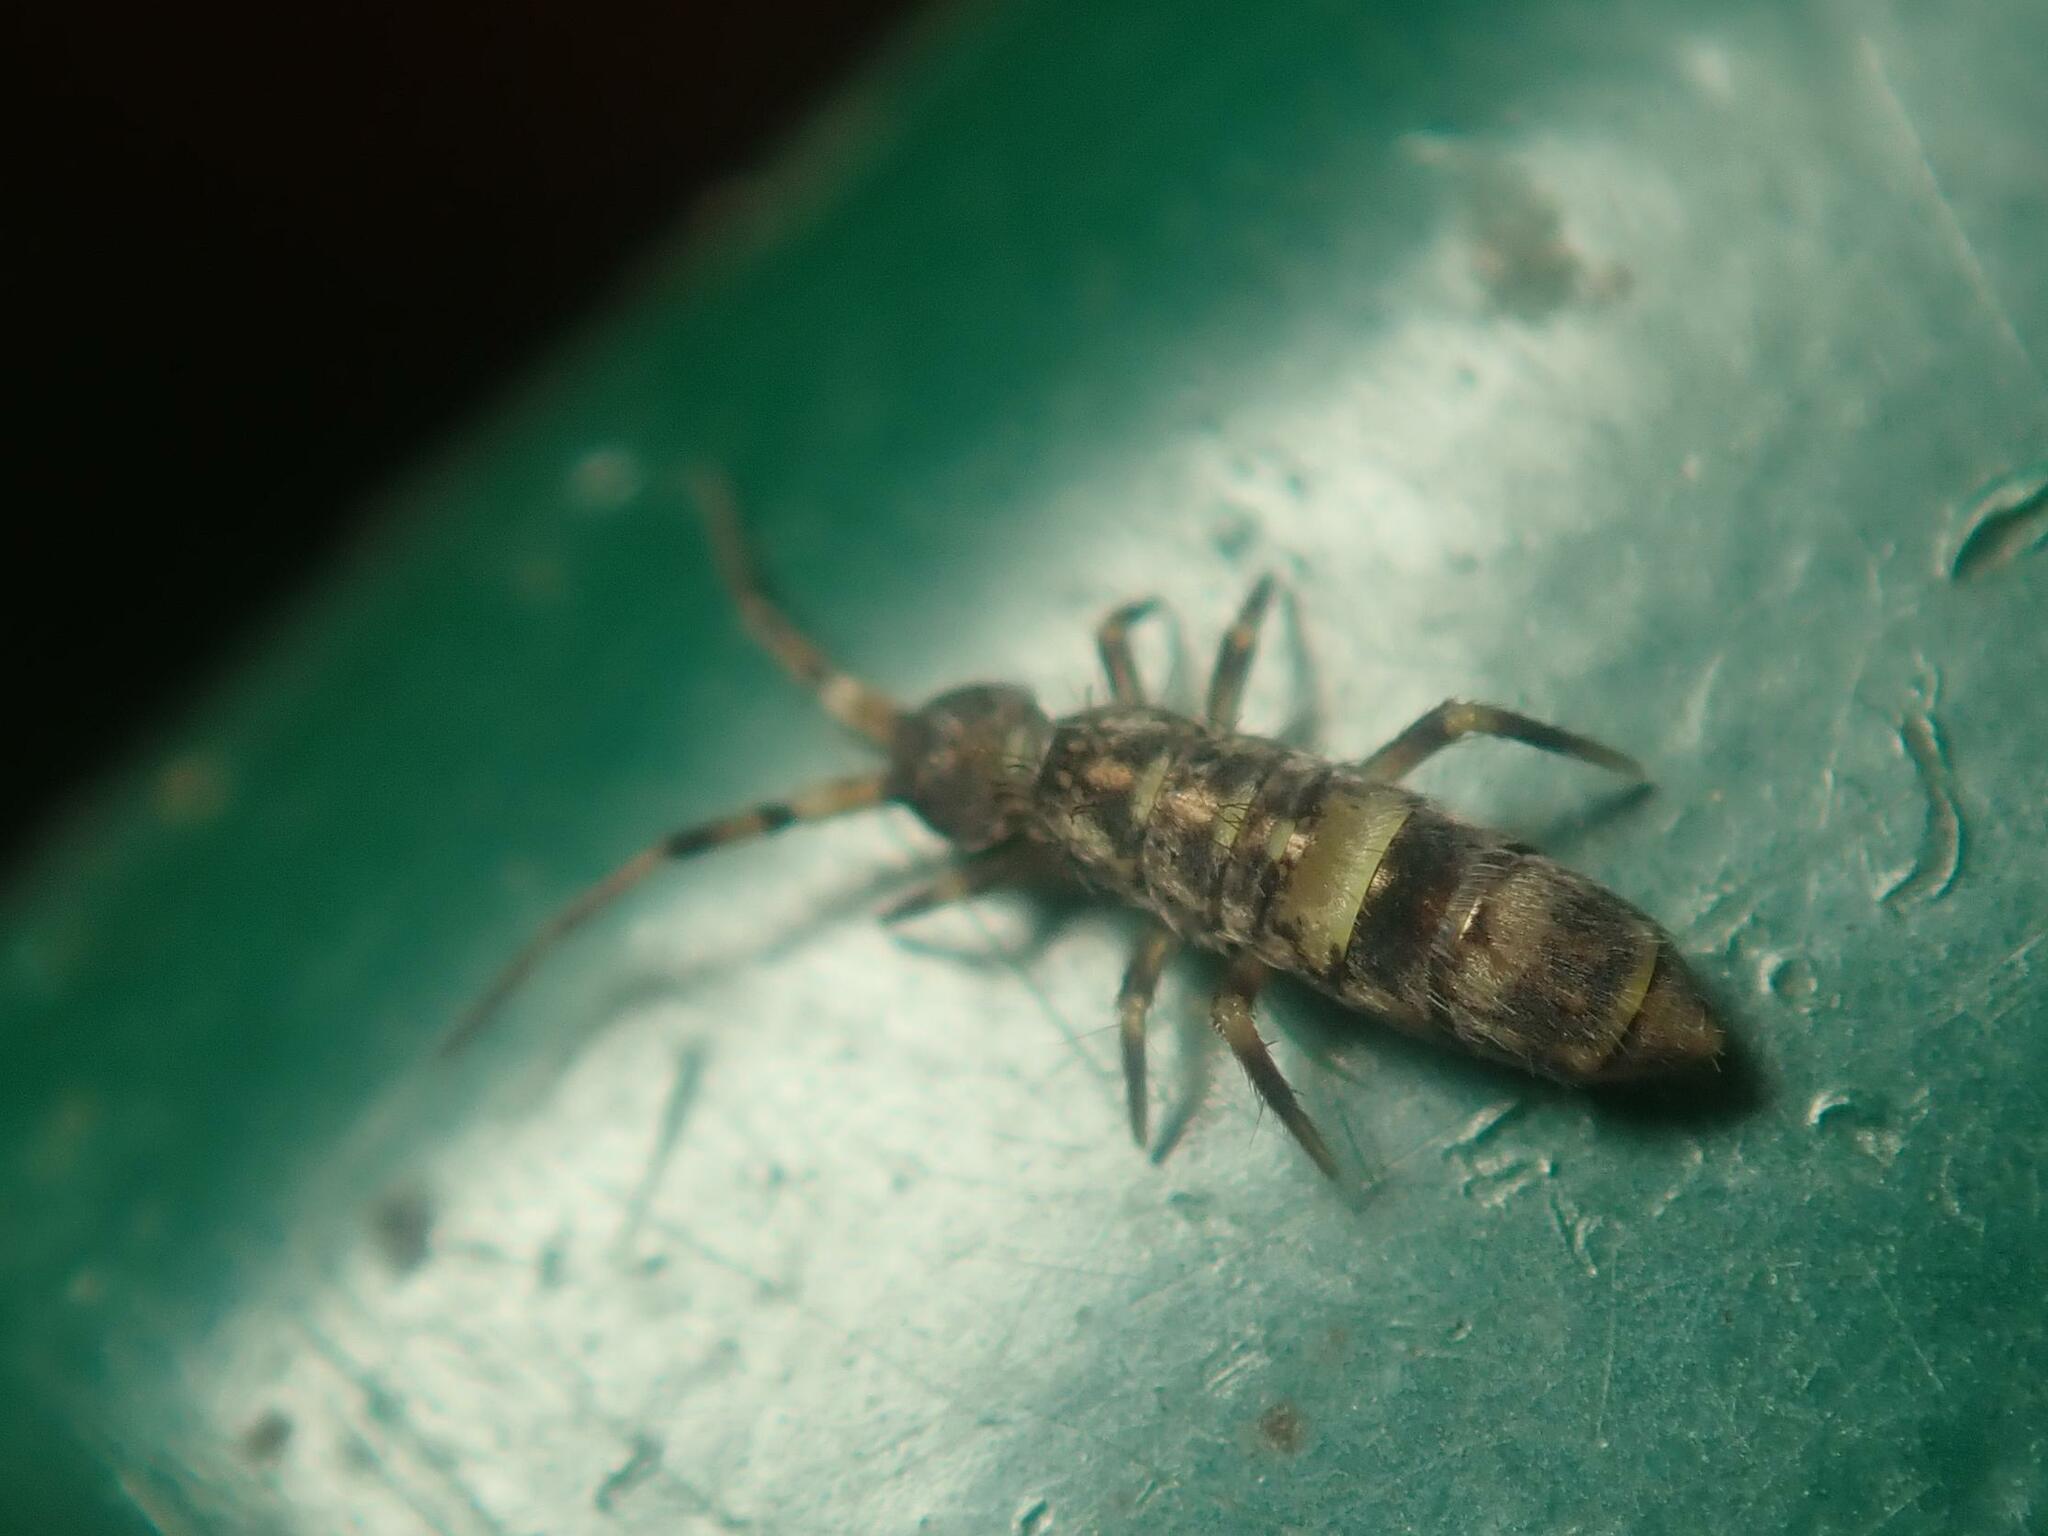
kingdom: Animalia
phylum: Arthropoda
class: Collembola
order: Entomobryomorpha
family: Orchesellidae
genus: Orchesella
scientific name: Orchesella cincta
